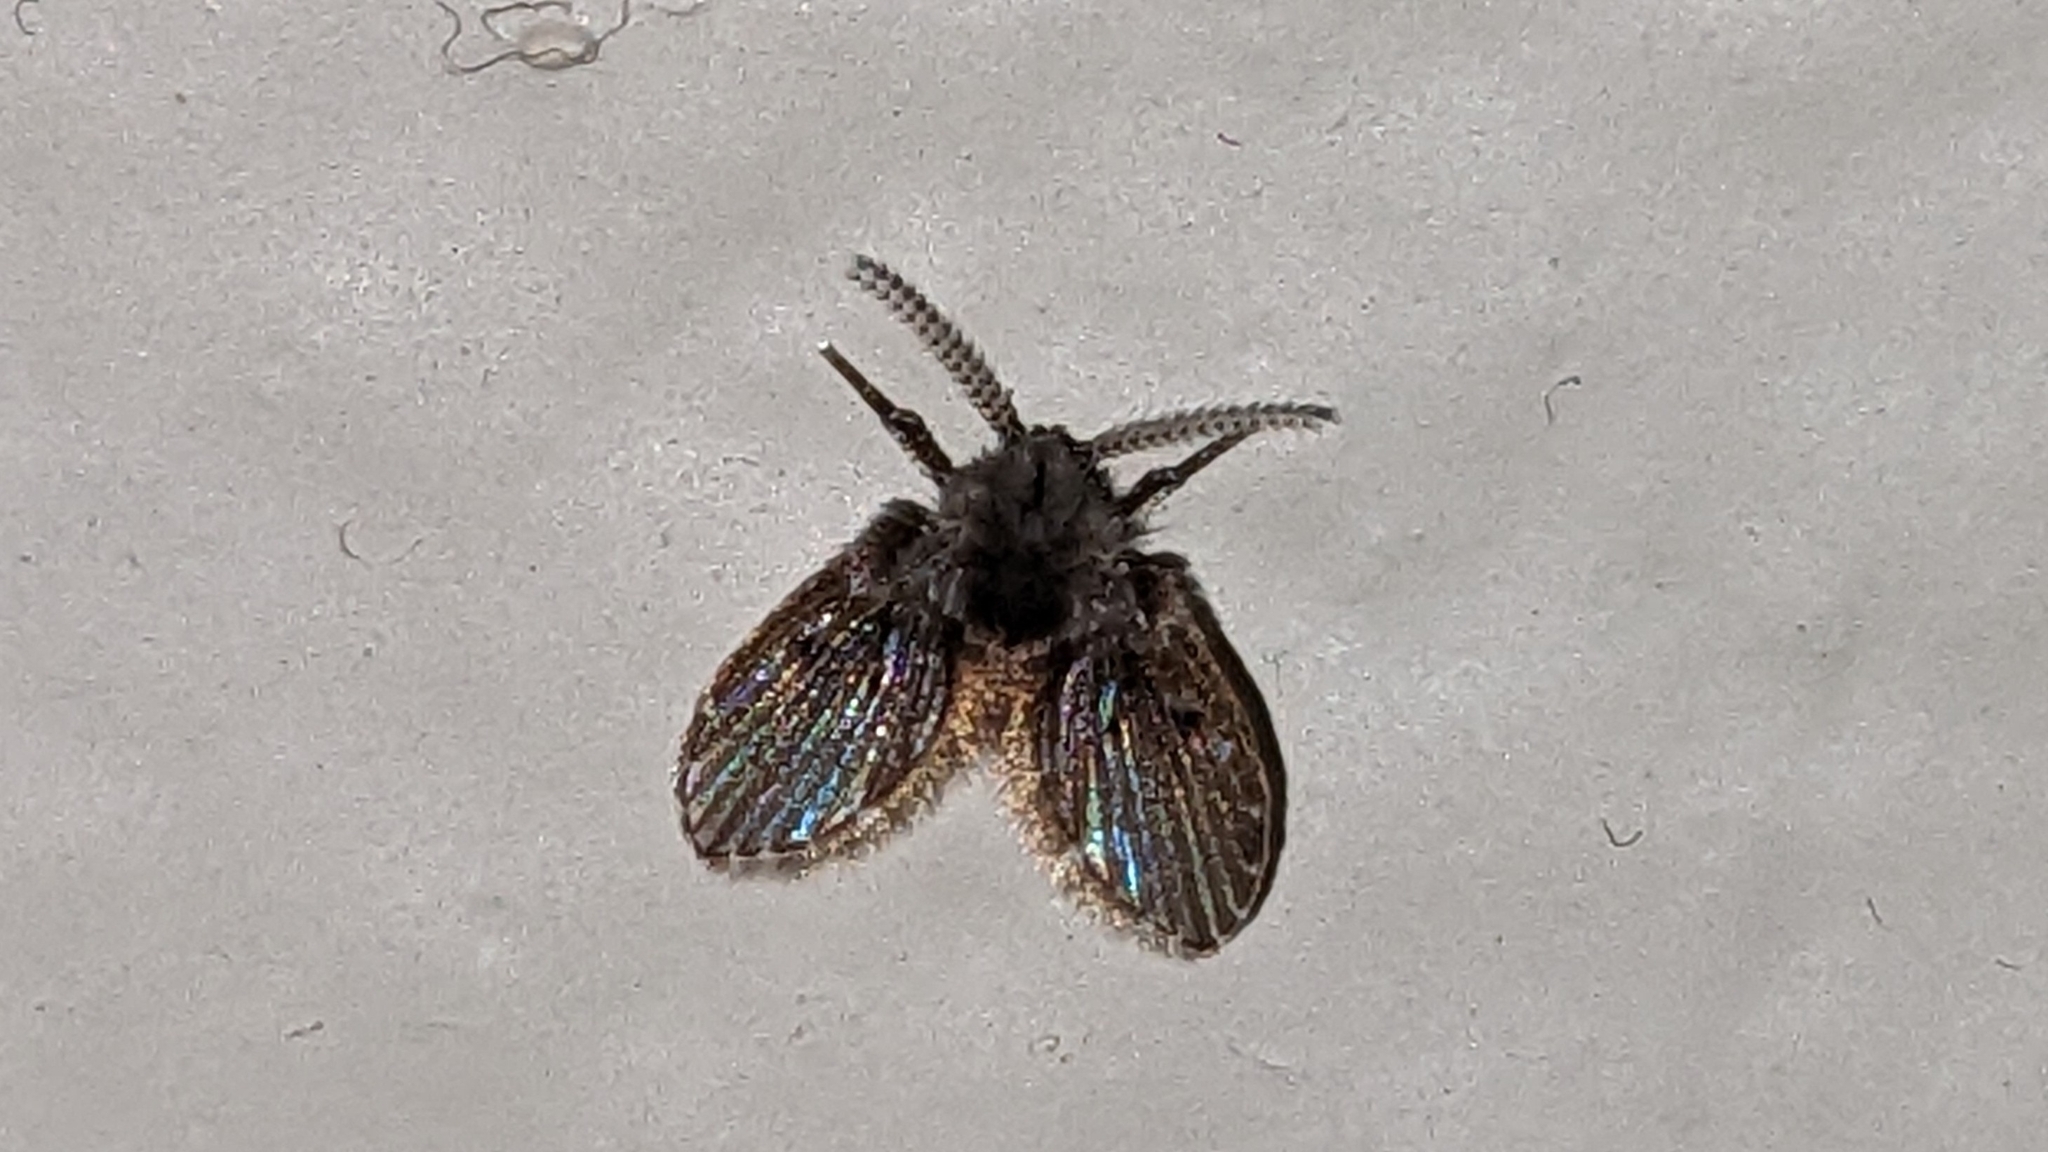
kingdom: Animalia
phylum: Arthropoda
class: Insecta
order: Diptera
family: Psychodidae
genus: Clogmia
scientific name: Clogmia albipunctatus
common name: White-spotted moth fly
